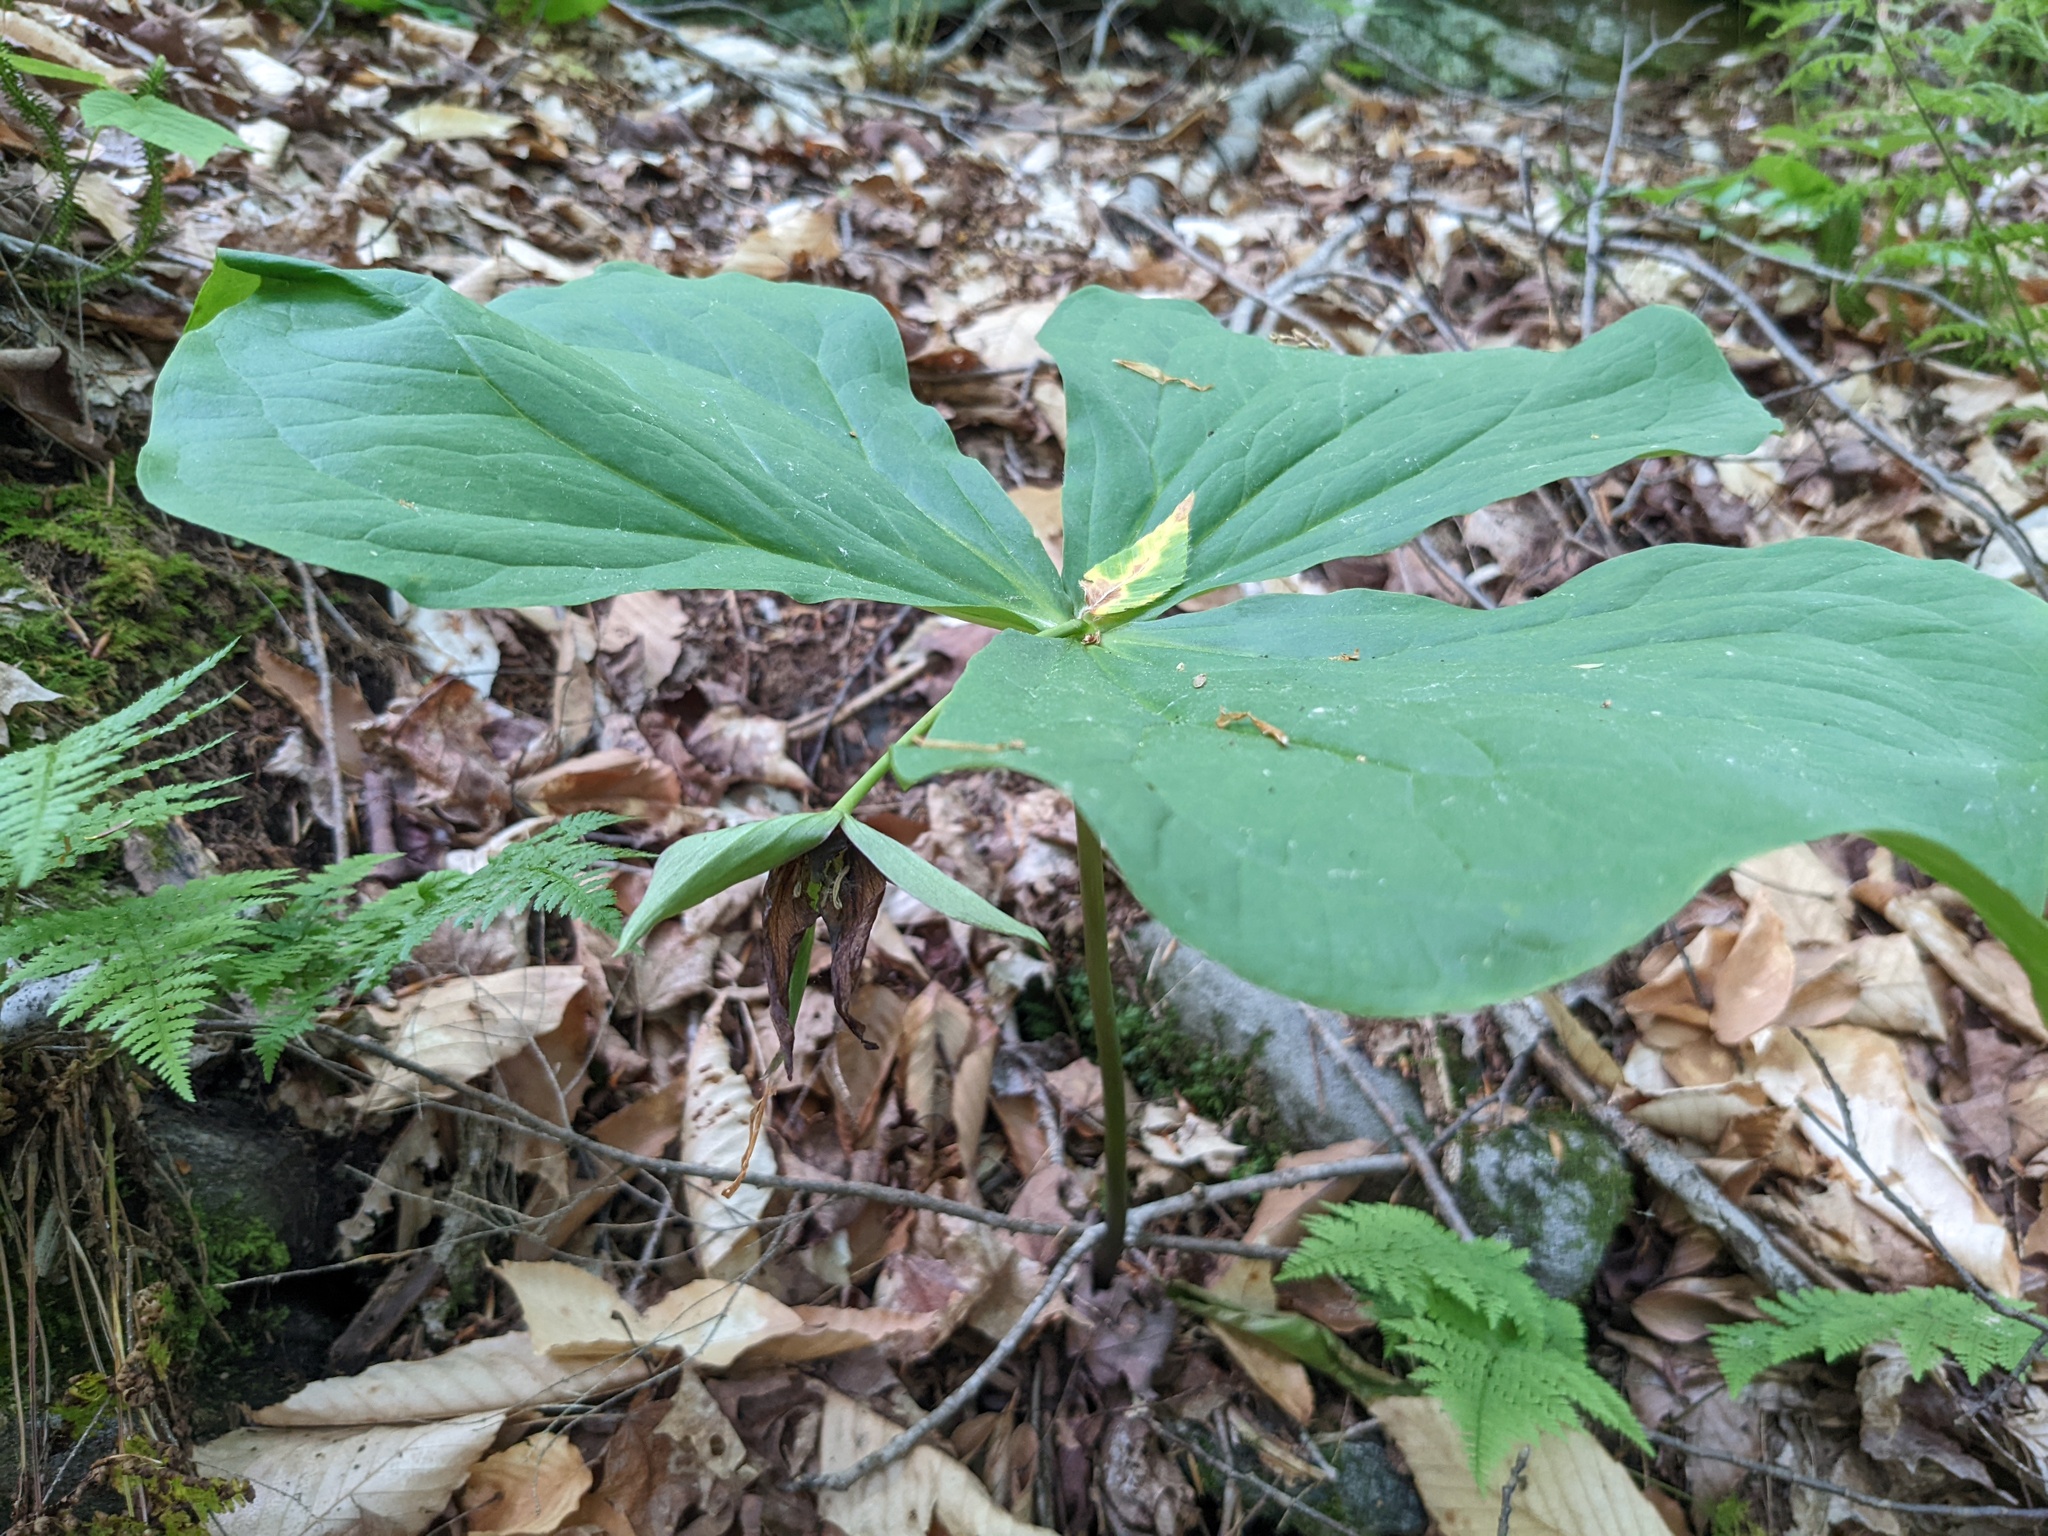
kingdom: Plantae
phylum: Tracheophyta
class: Liliopsida
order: Liliales
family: Melanthiaceae
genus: Trillium
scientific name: Trillium erectum
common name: Purple trillium
